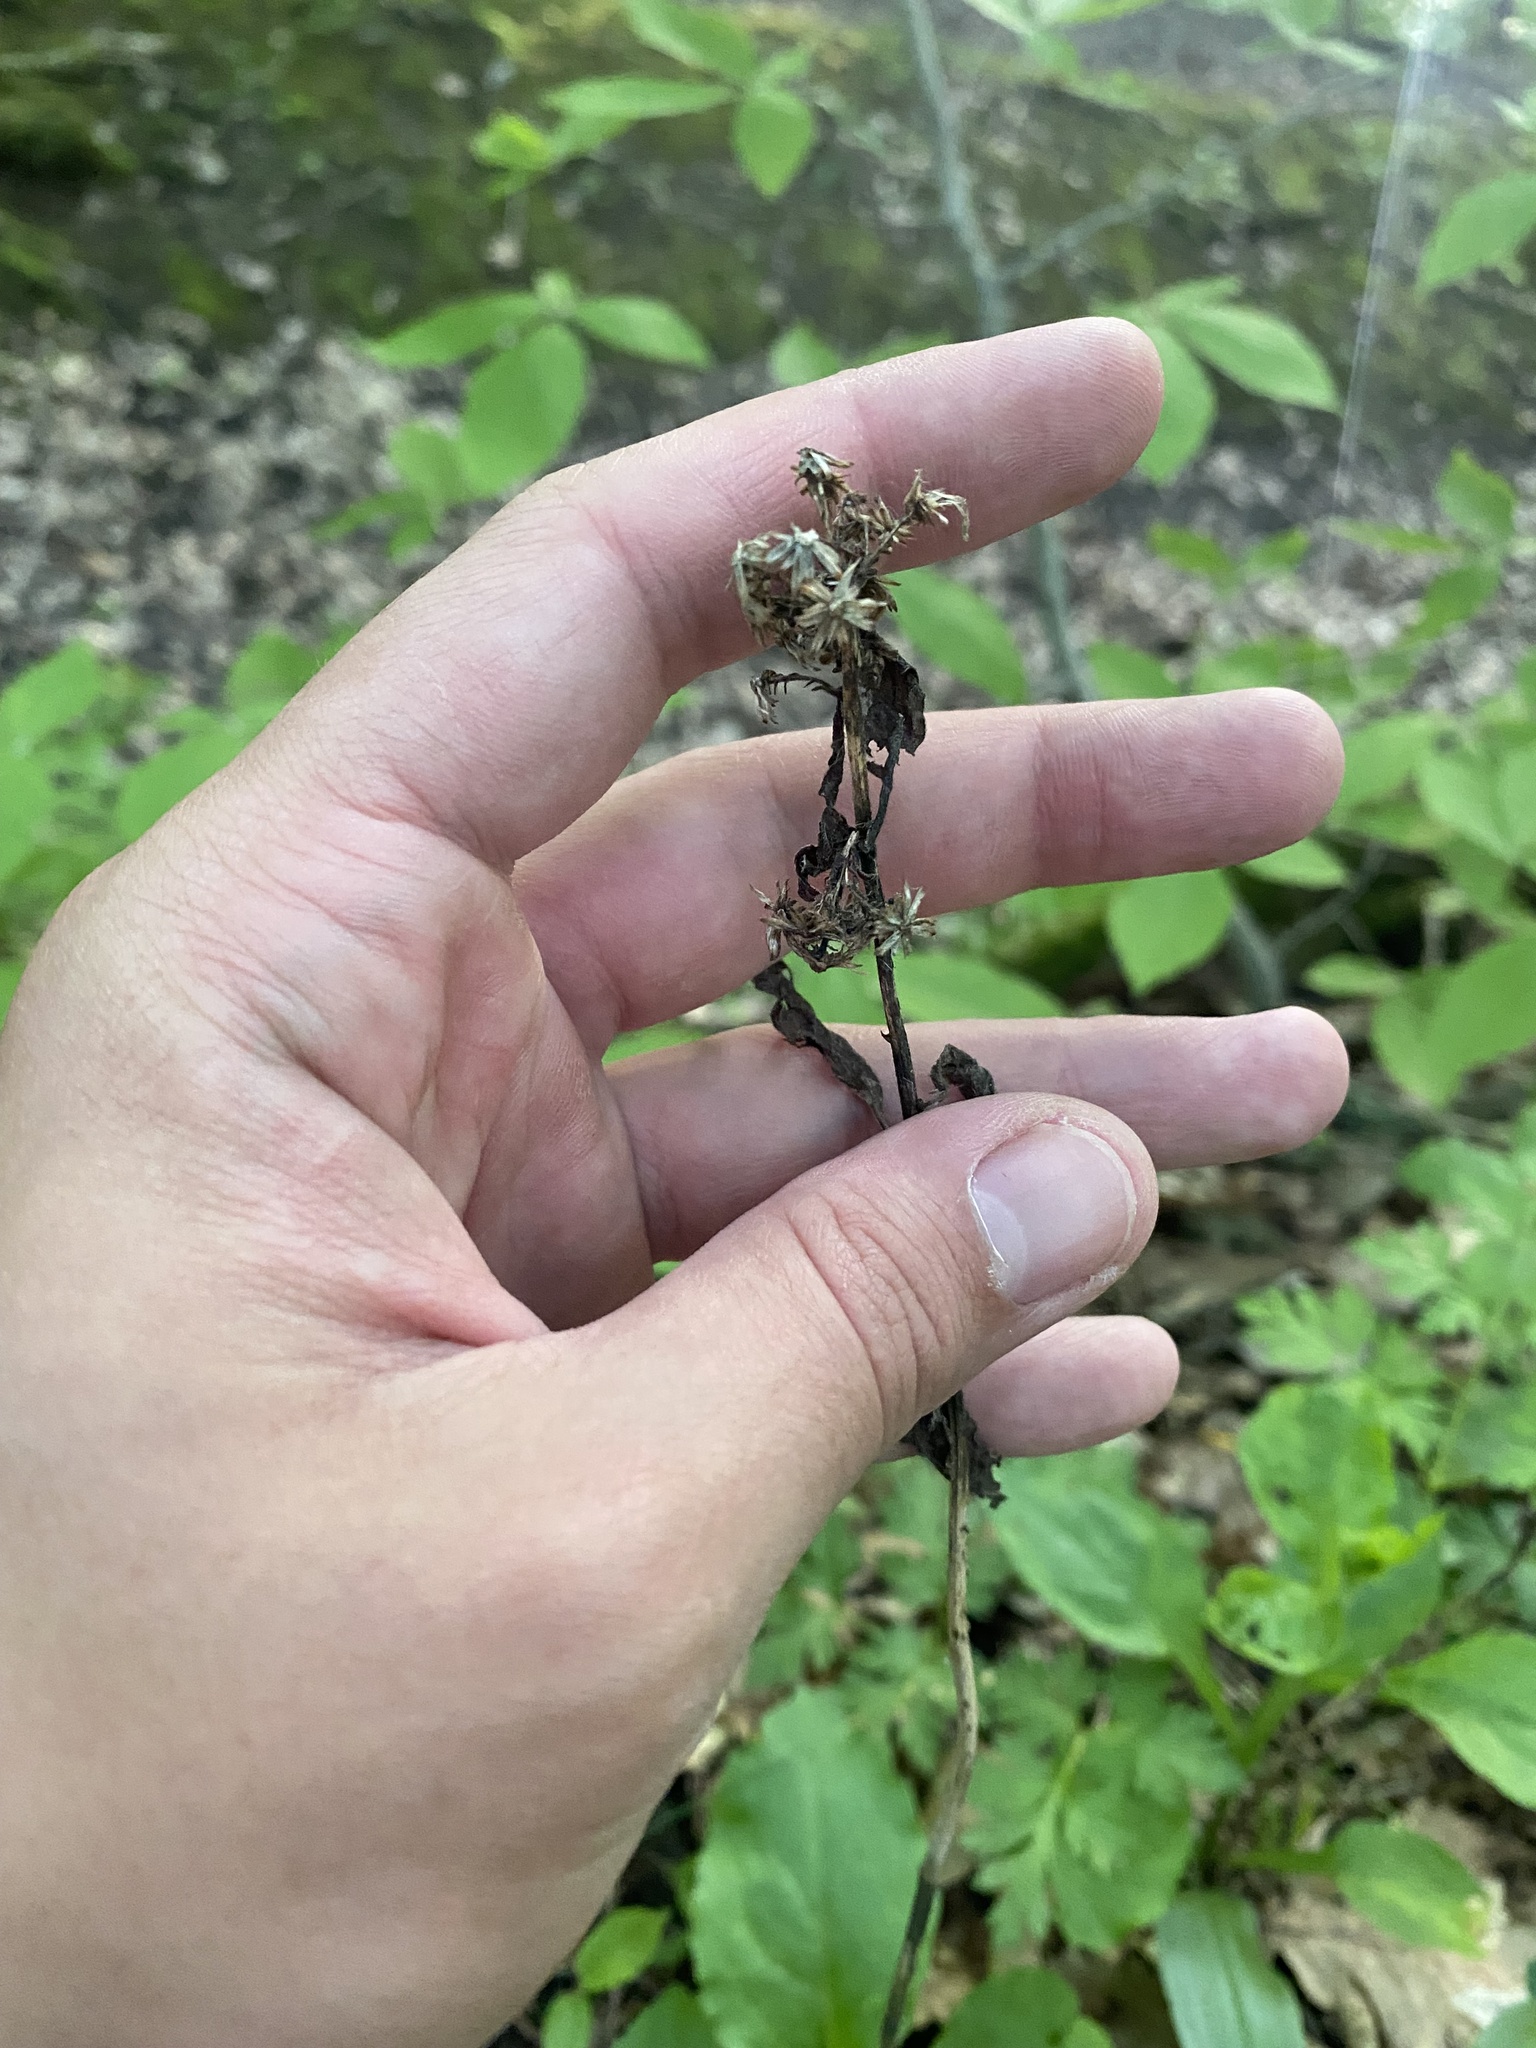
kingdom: Plantae
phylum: Tracheophyta
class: Magnoliopsida
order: Asterales
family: Asteraceae
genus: Solidago
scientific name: Solidago virgaurea
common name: Goldenrod
